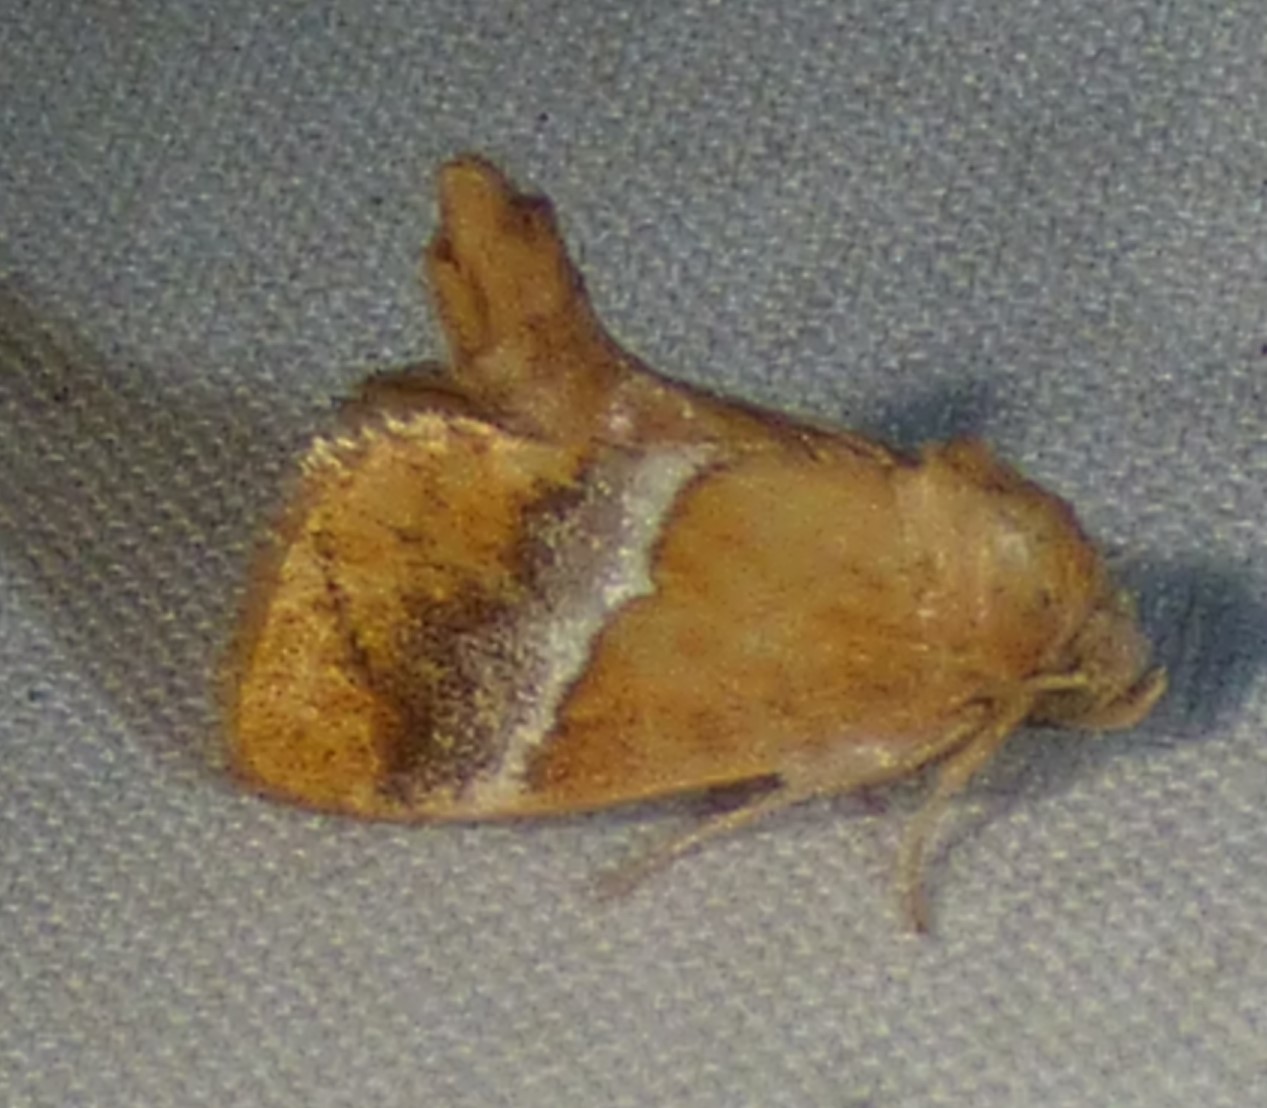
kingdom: Animalia
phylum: Arthropoda
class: Insecta
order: Lepidoptera
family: Limacodidae
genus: Lithacodes
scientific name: Lithacodes fasciola
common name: Yellow-shouldered slug moth
